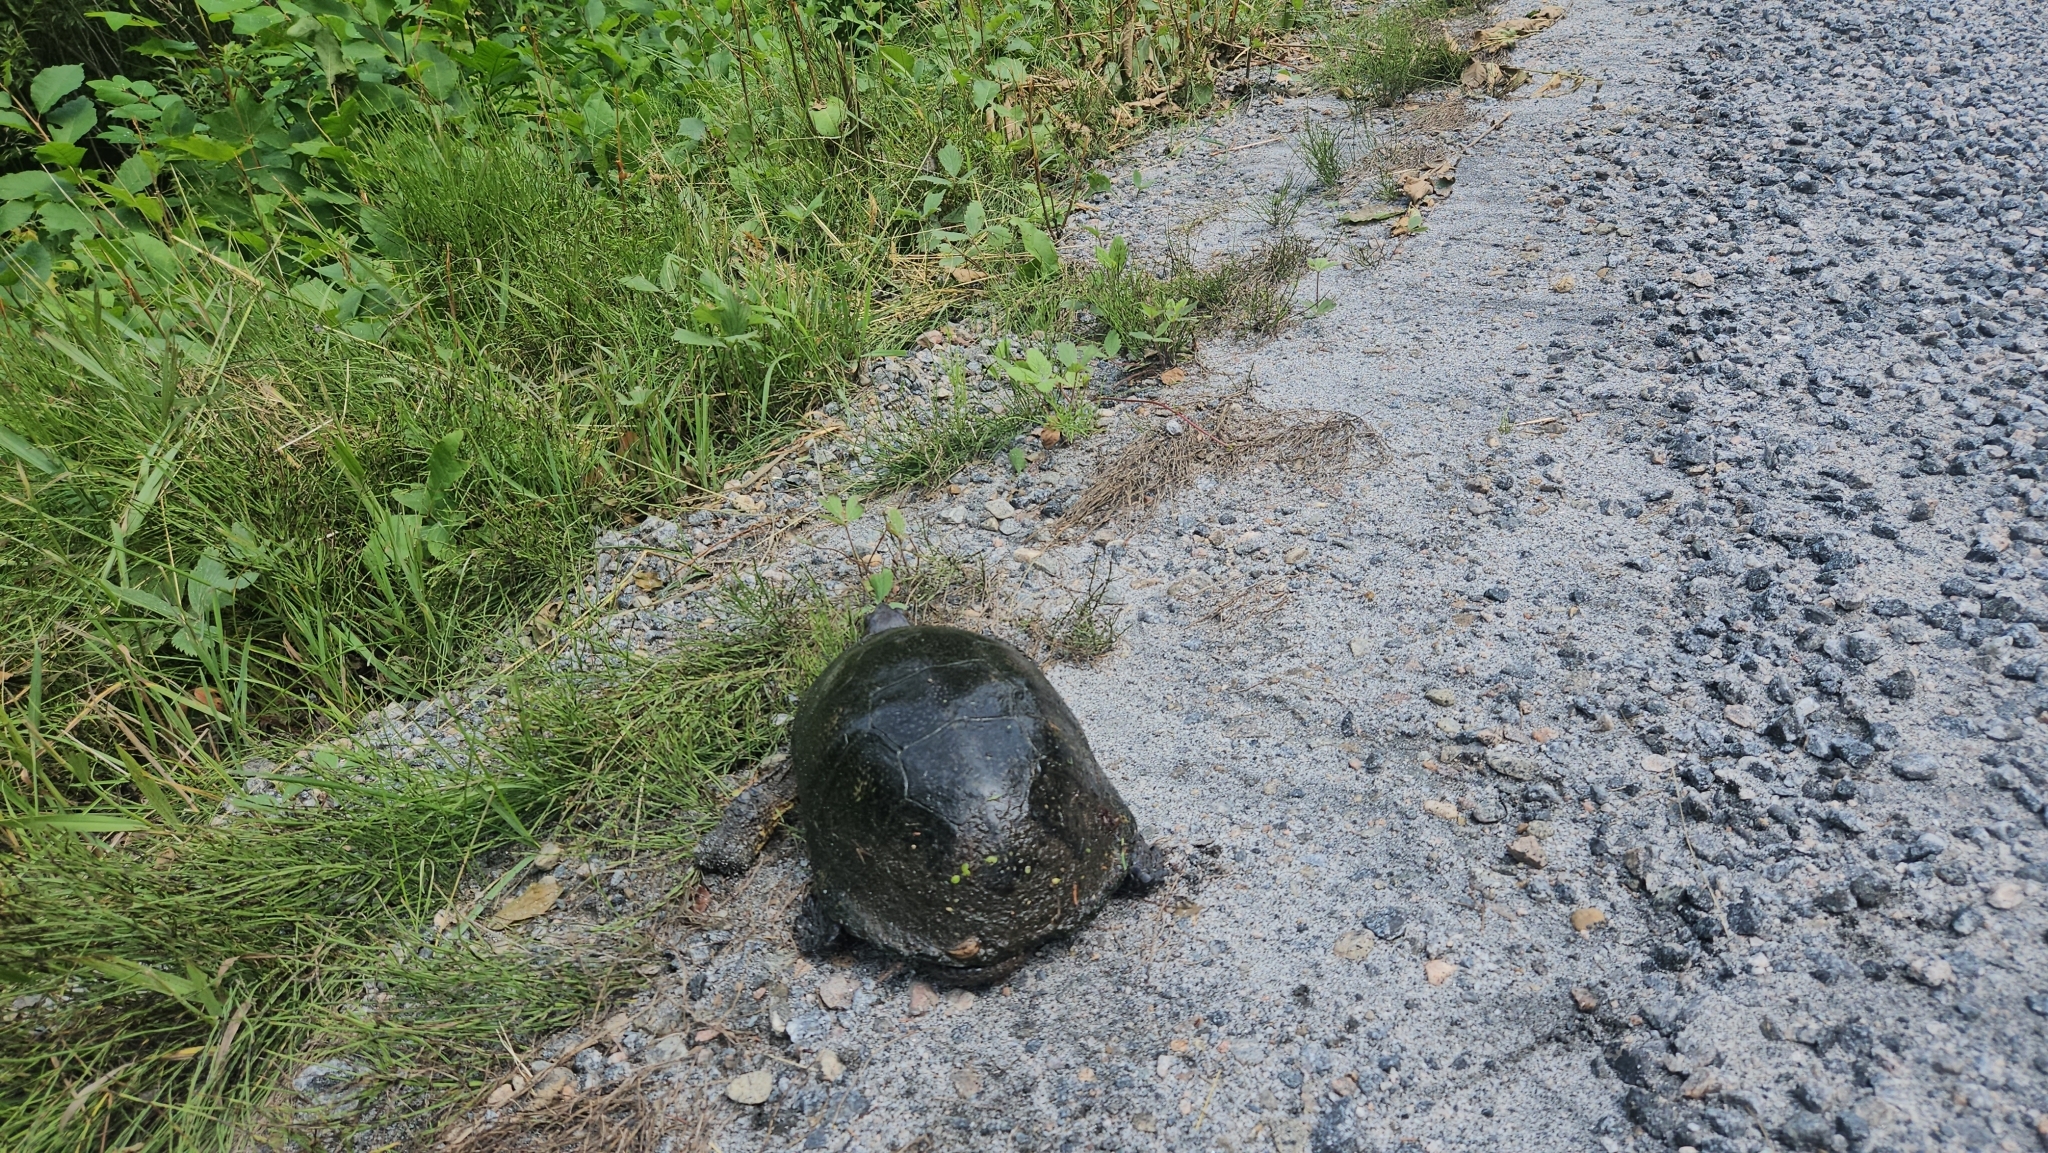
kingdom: Animalia
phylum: Chordata
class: Testudines
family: Emydidae
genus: Emys
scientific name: Emys blandingii
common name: Blanding's turtle
